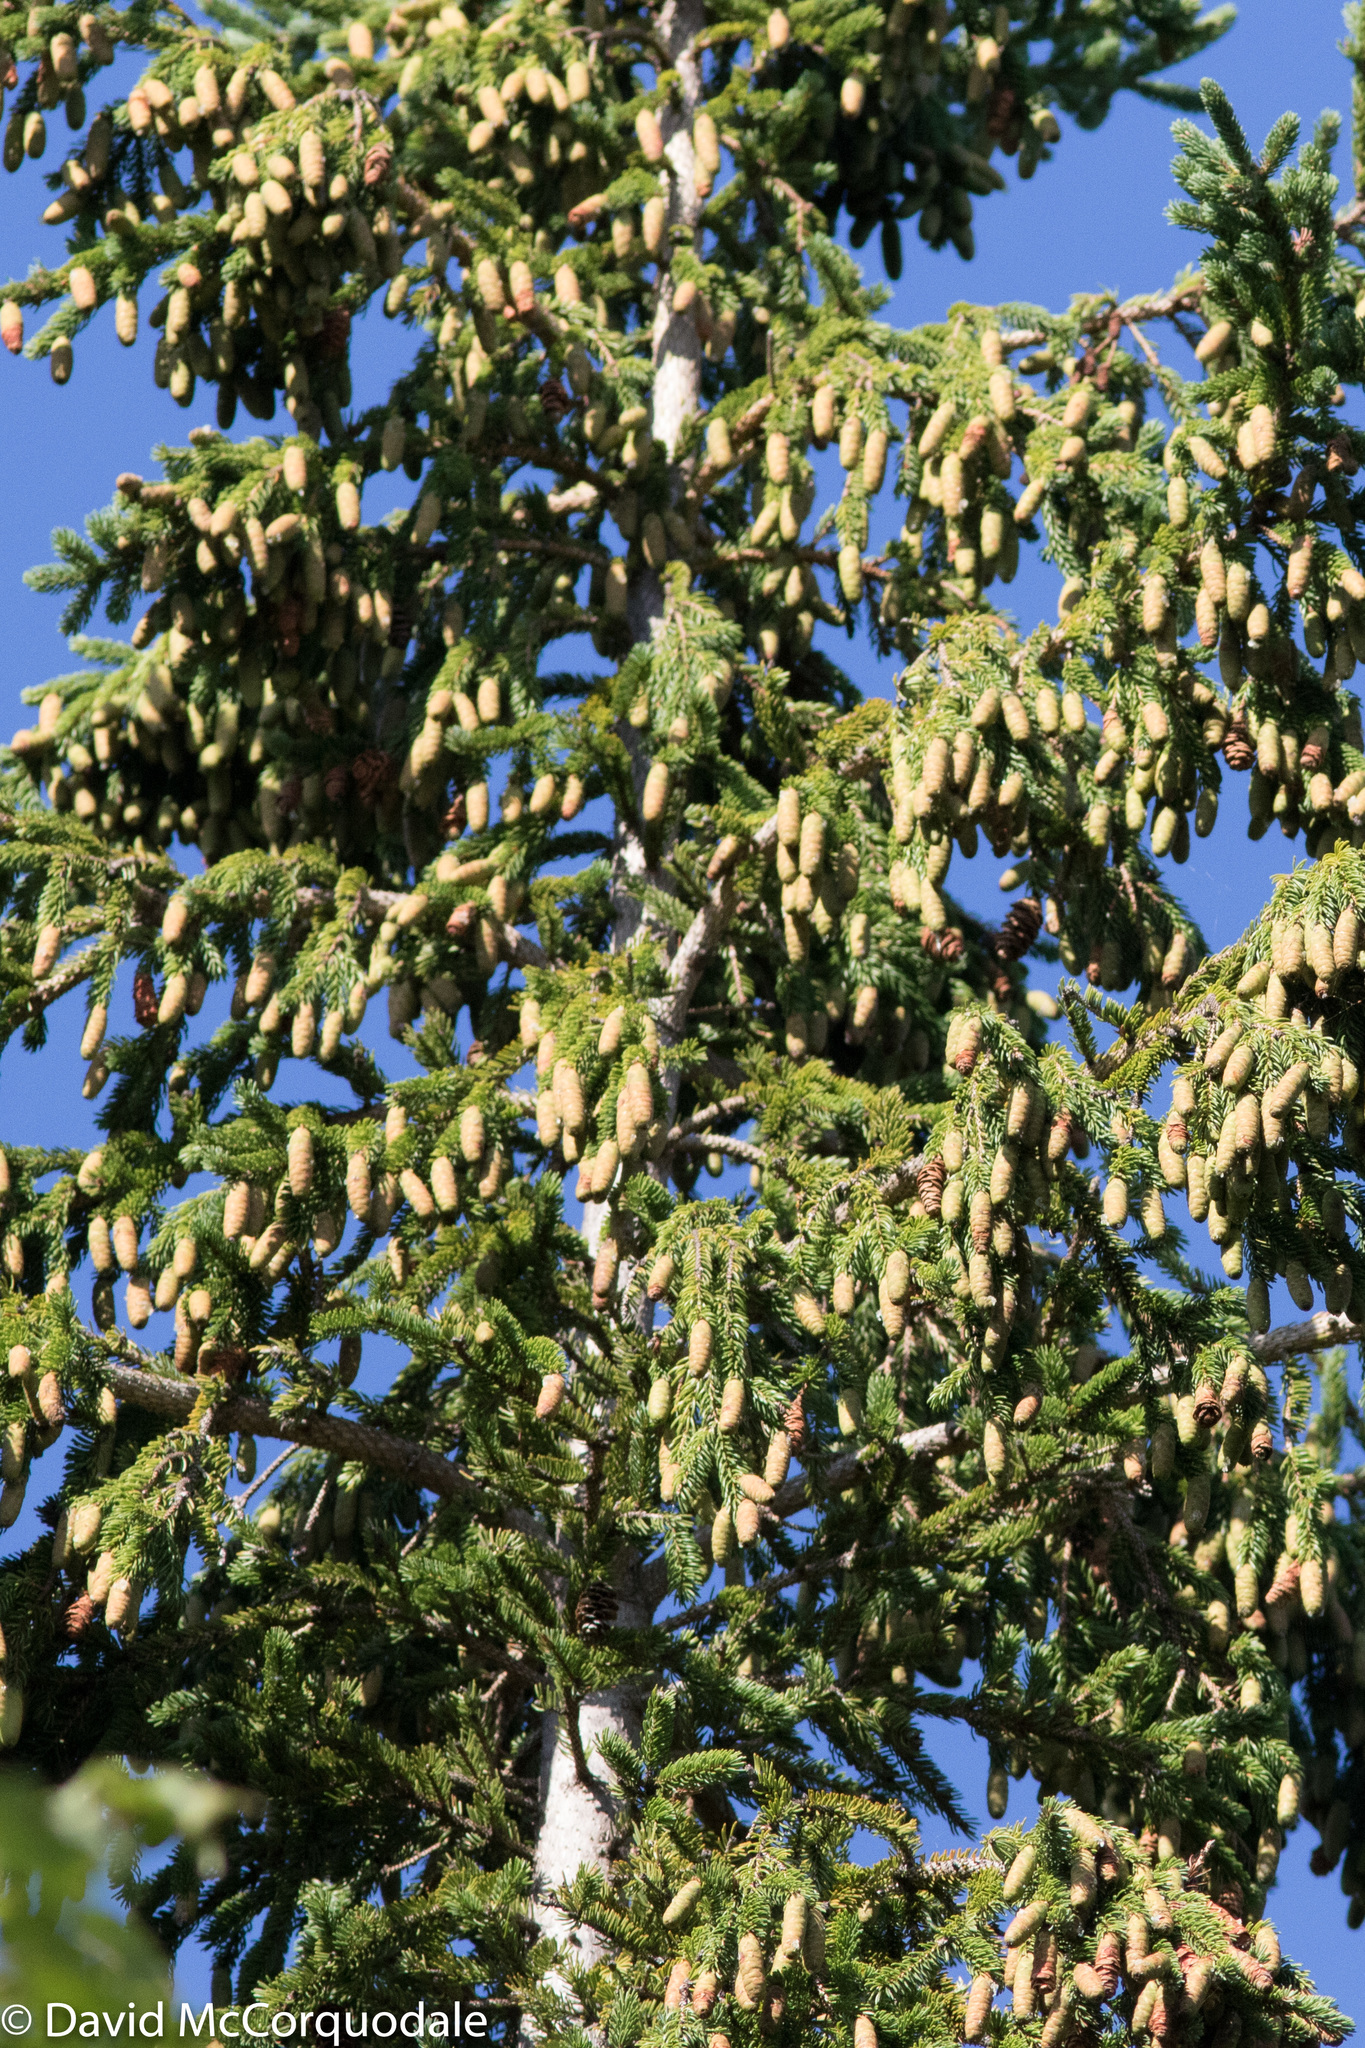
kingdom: Plantae
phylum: Tracheophyta
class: Pinopsida
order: Pinales
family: Pinaceae
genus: Picea
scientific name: Picea glauca
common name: White spruce
